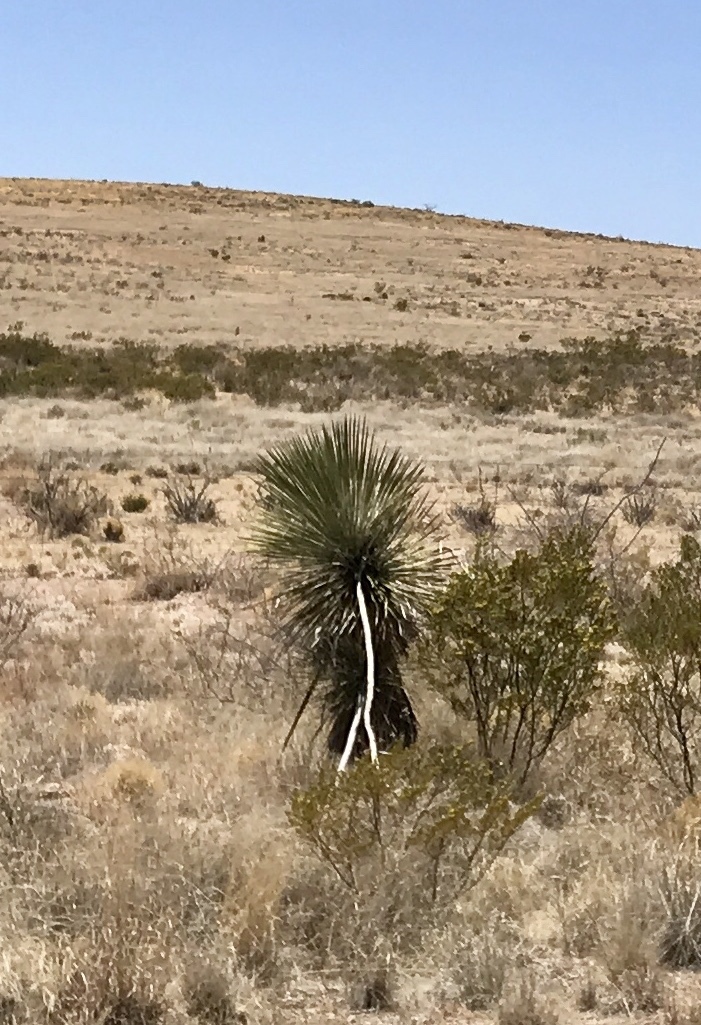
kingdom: Plantae
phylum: Tracheophyta
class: Liliopsida
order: Asparagales
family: Asparagaceae
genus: Yucca
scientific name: Yucca elata
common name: Palmella
